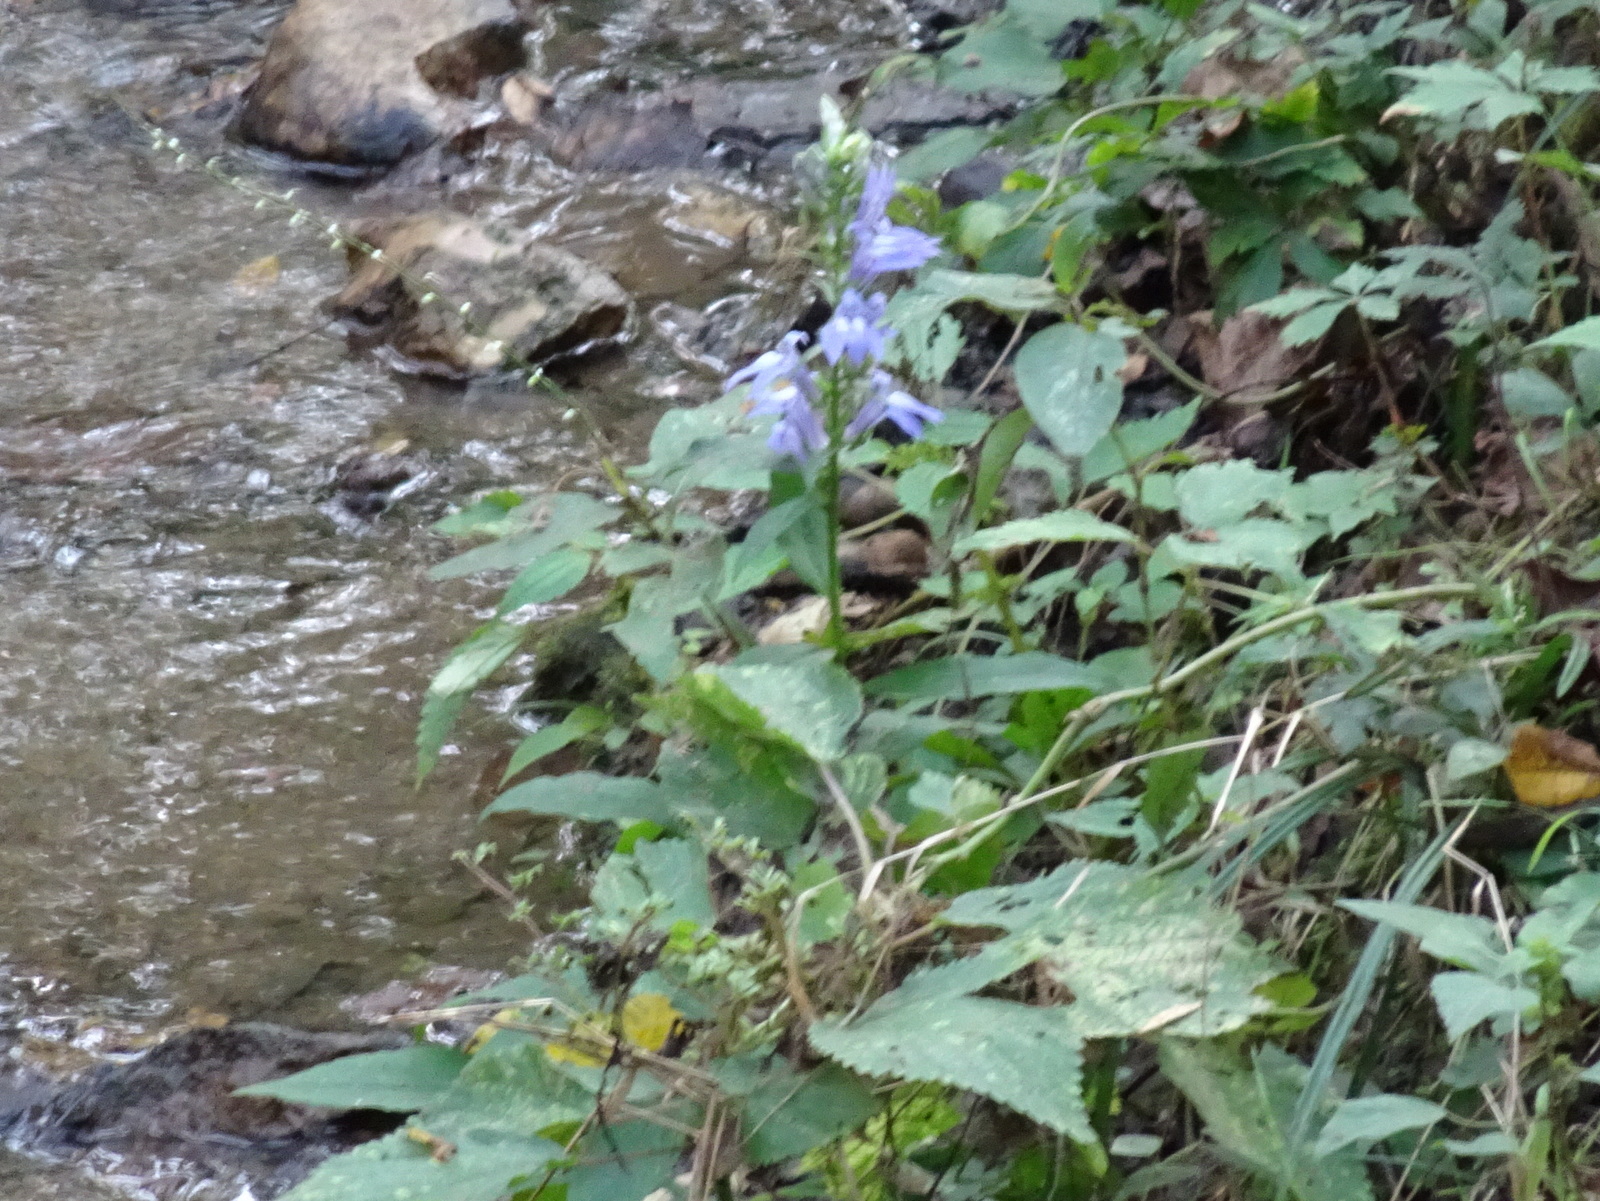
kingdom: Plantae
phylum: Tracheophyta
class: Magnoliopsida
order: Asterales
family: Campanulaceae
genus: Lobelia
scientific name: Lobelia siphilitica
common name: Great lobelia
